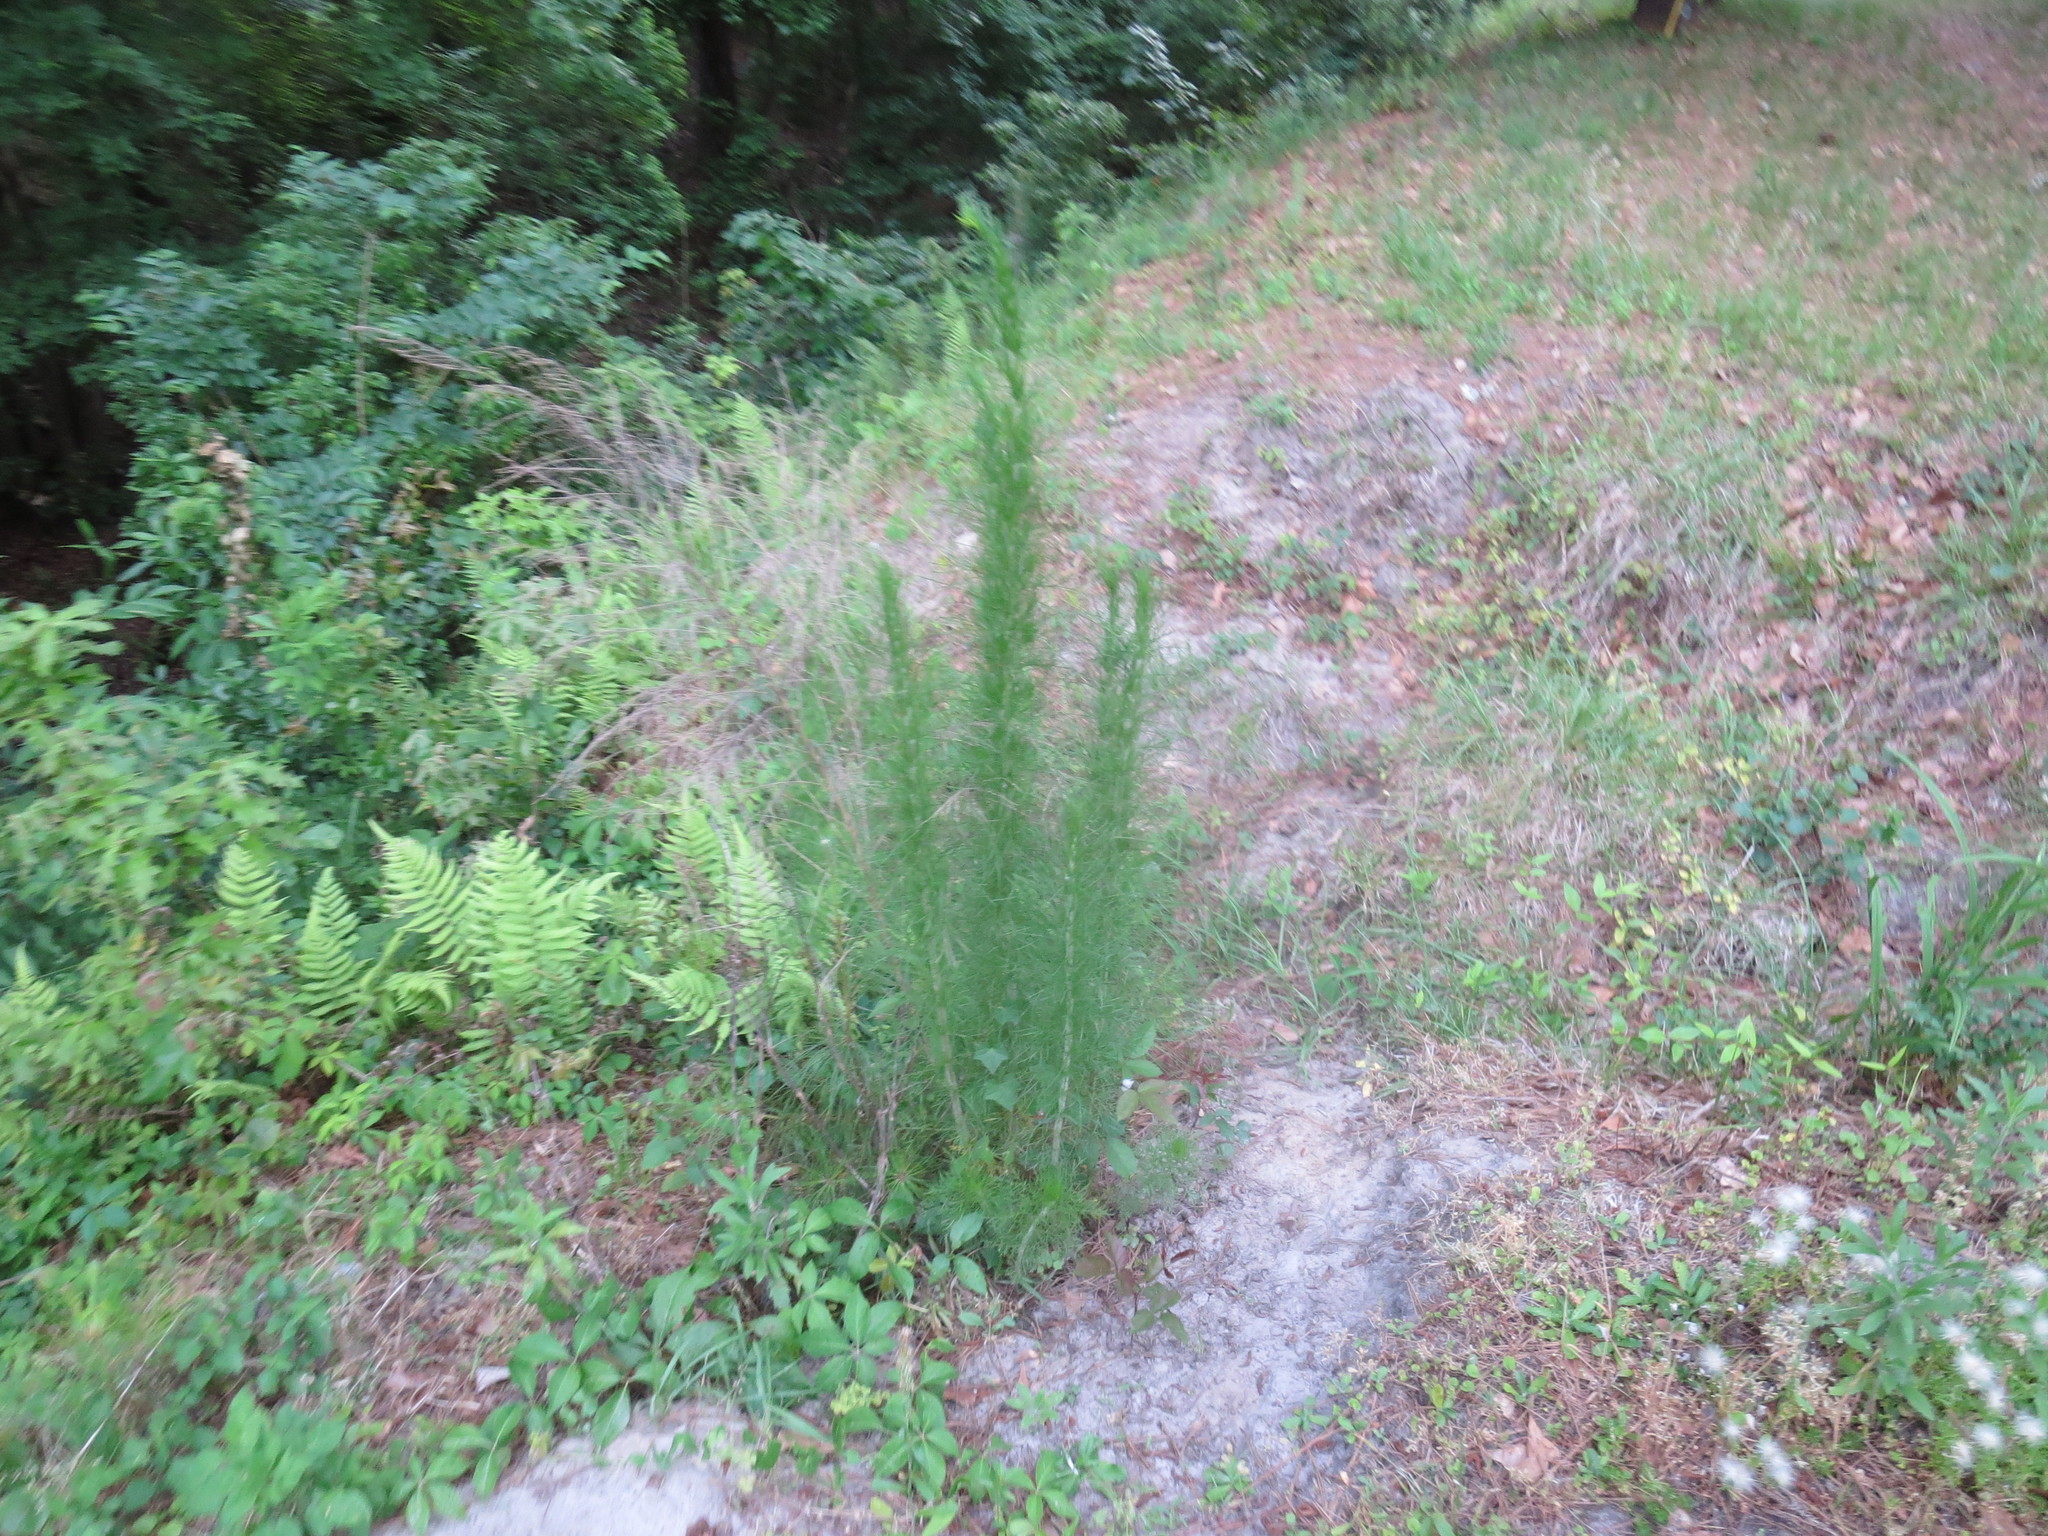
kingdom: Plantae
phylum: Tracheophyta
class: Magnoliopsida
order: Asterales
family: Asteraceae
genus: Eupatorium
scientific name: Eupatorium capillifolium
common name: Dog-fennel
